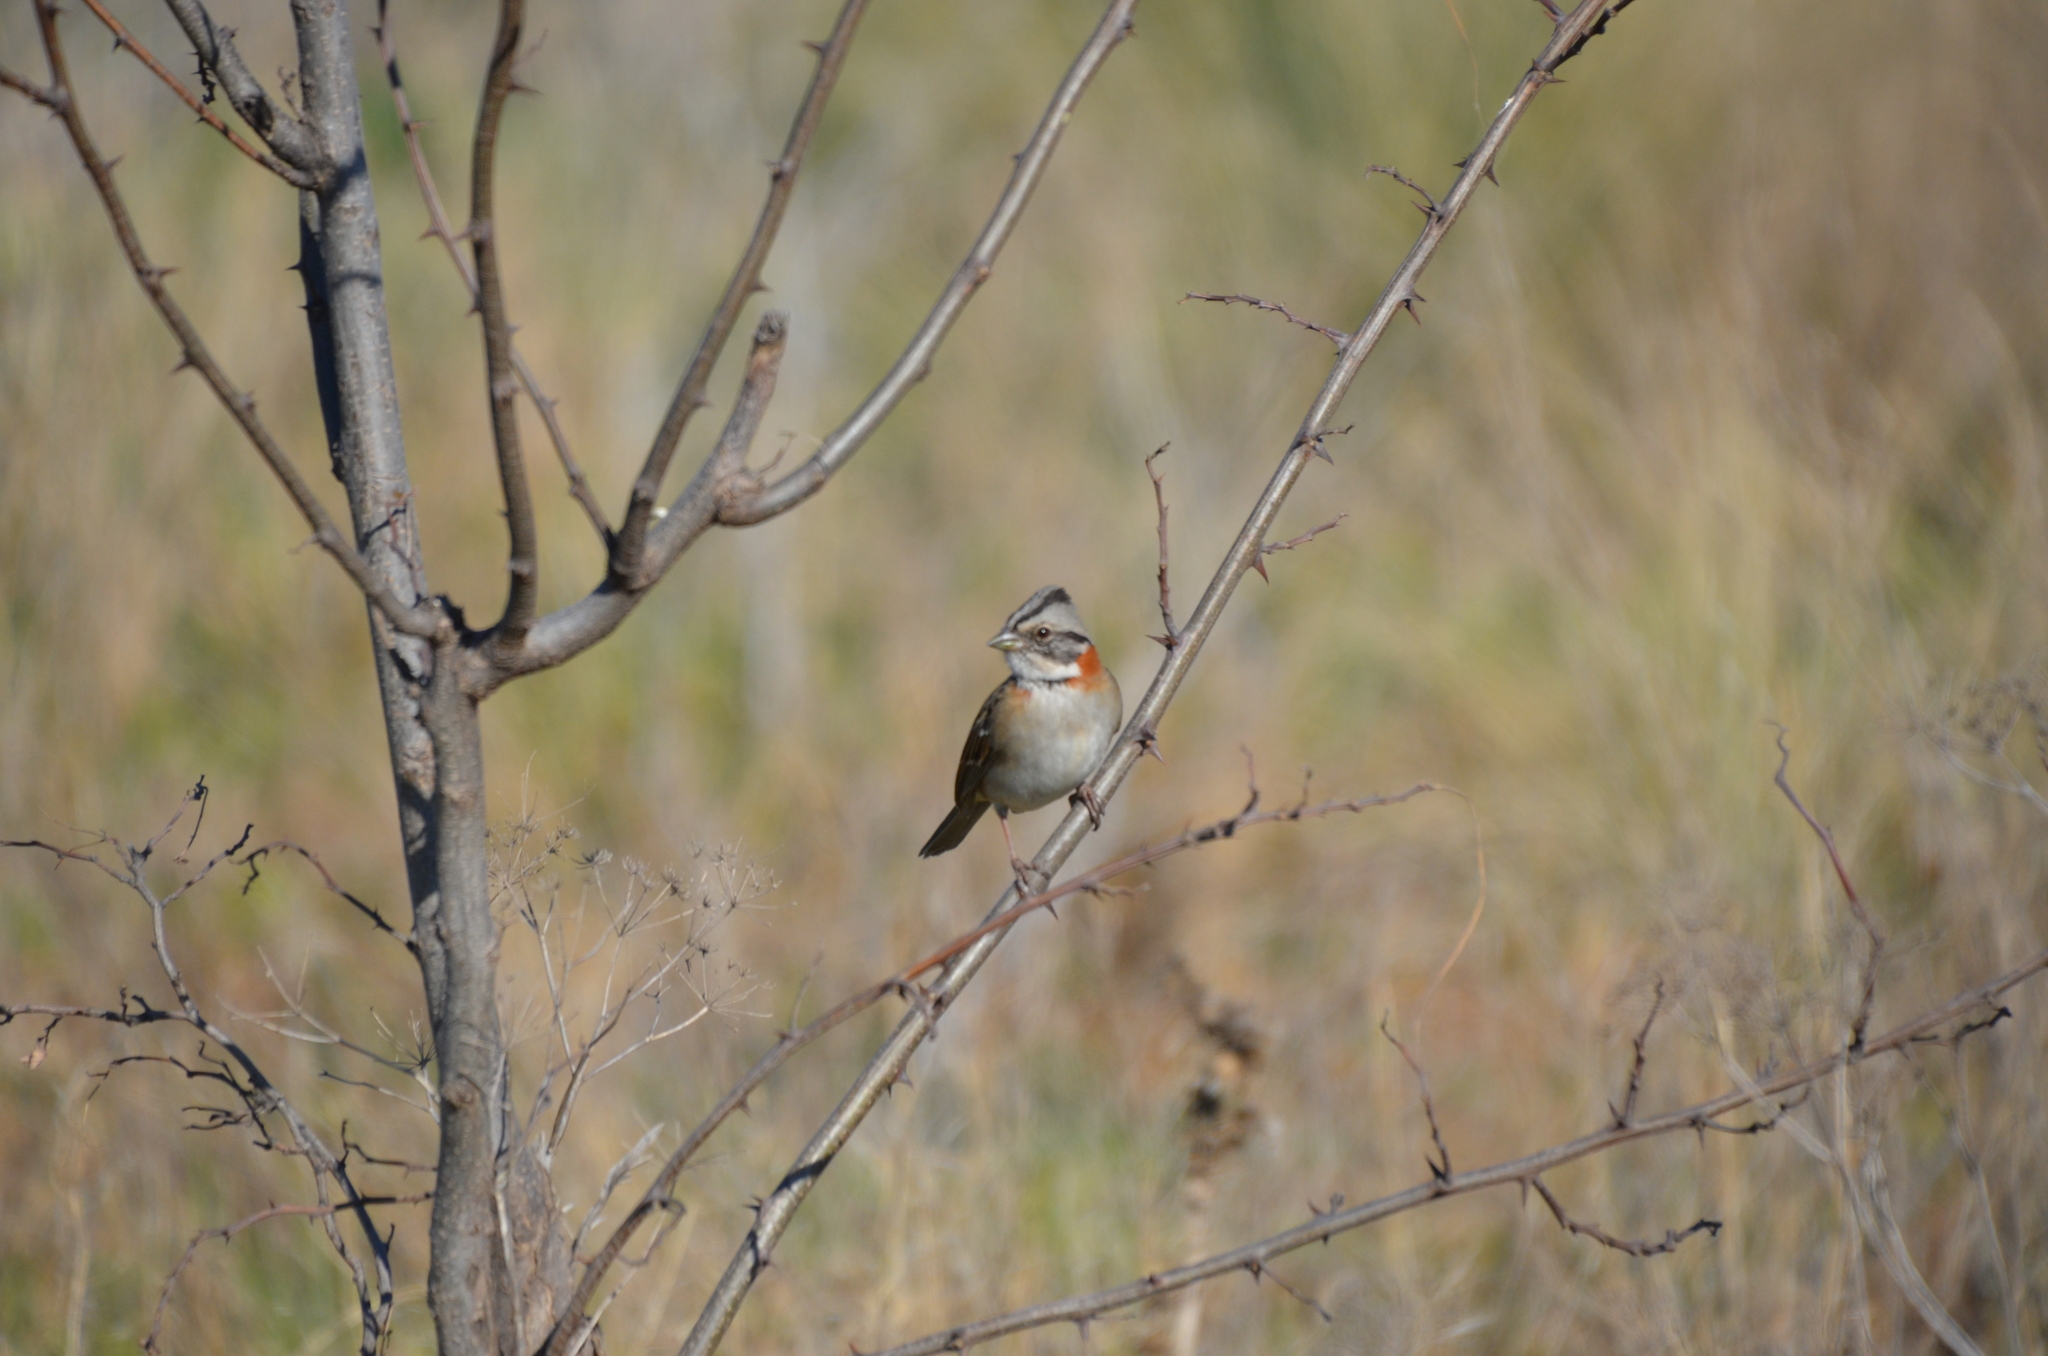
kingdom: Animalia
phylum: Chordata
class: Aves
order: Passeriformes
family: Passerellidae
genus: Zonotrichia
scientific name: Zonotrichia capensis
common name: Rufous-collared sparrow
